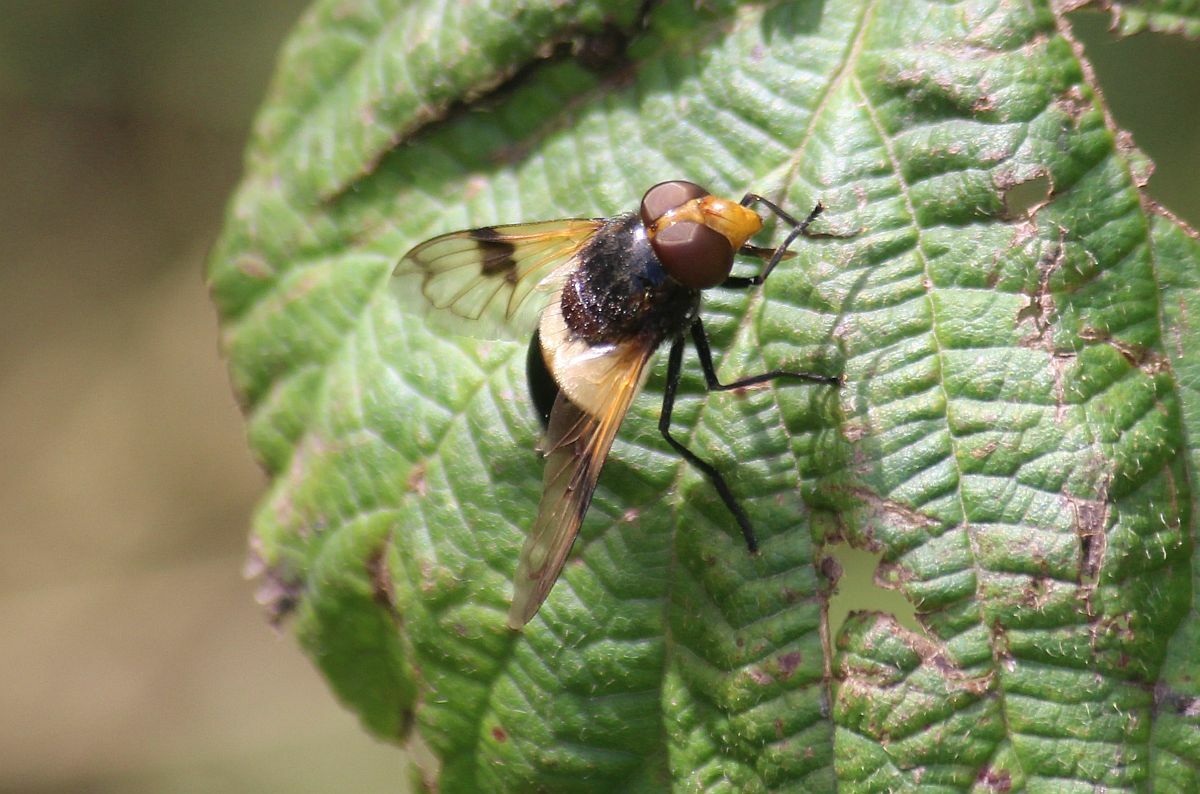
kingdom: Animalia
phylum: Arthropoda
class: Insecta
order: Diptera
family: Syrphidae
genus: Volucella
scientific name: Volucella pellucens
